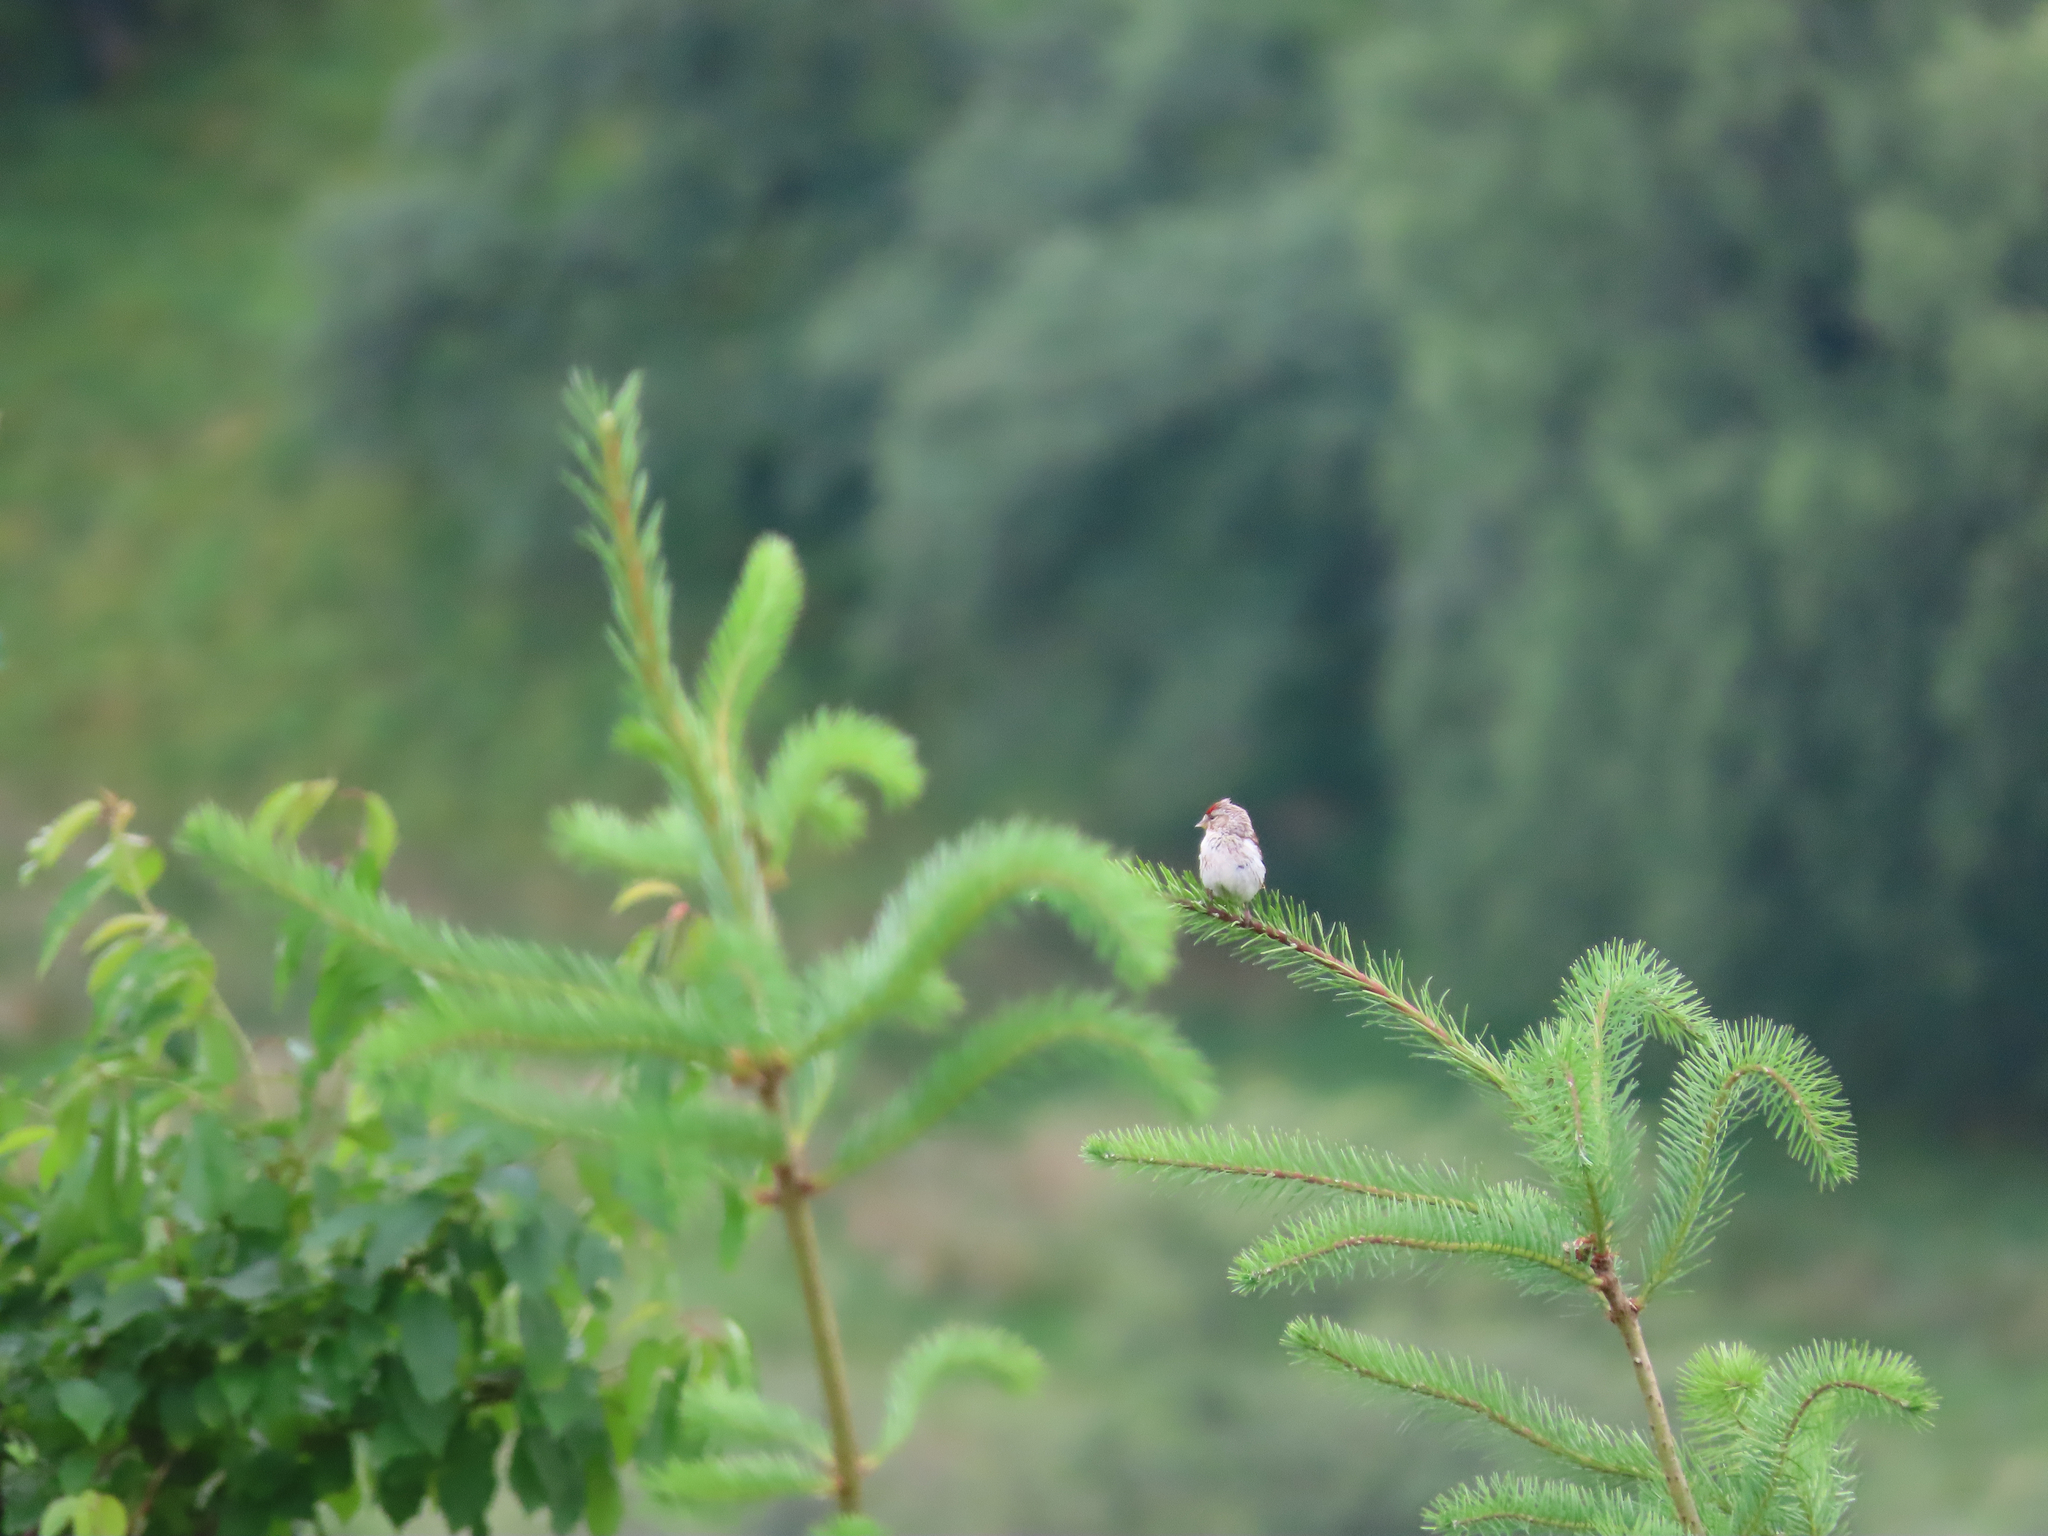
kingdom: Animalia
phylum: Chordata
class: Aves
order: Passeriformes
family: Fringillidae
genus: Acanthis
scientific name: Acanthis flammea
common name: Common redpoll
